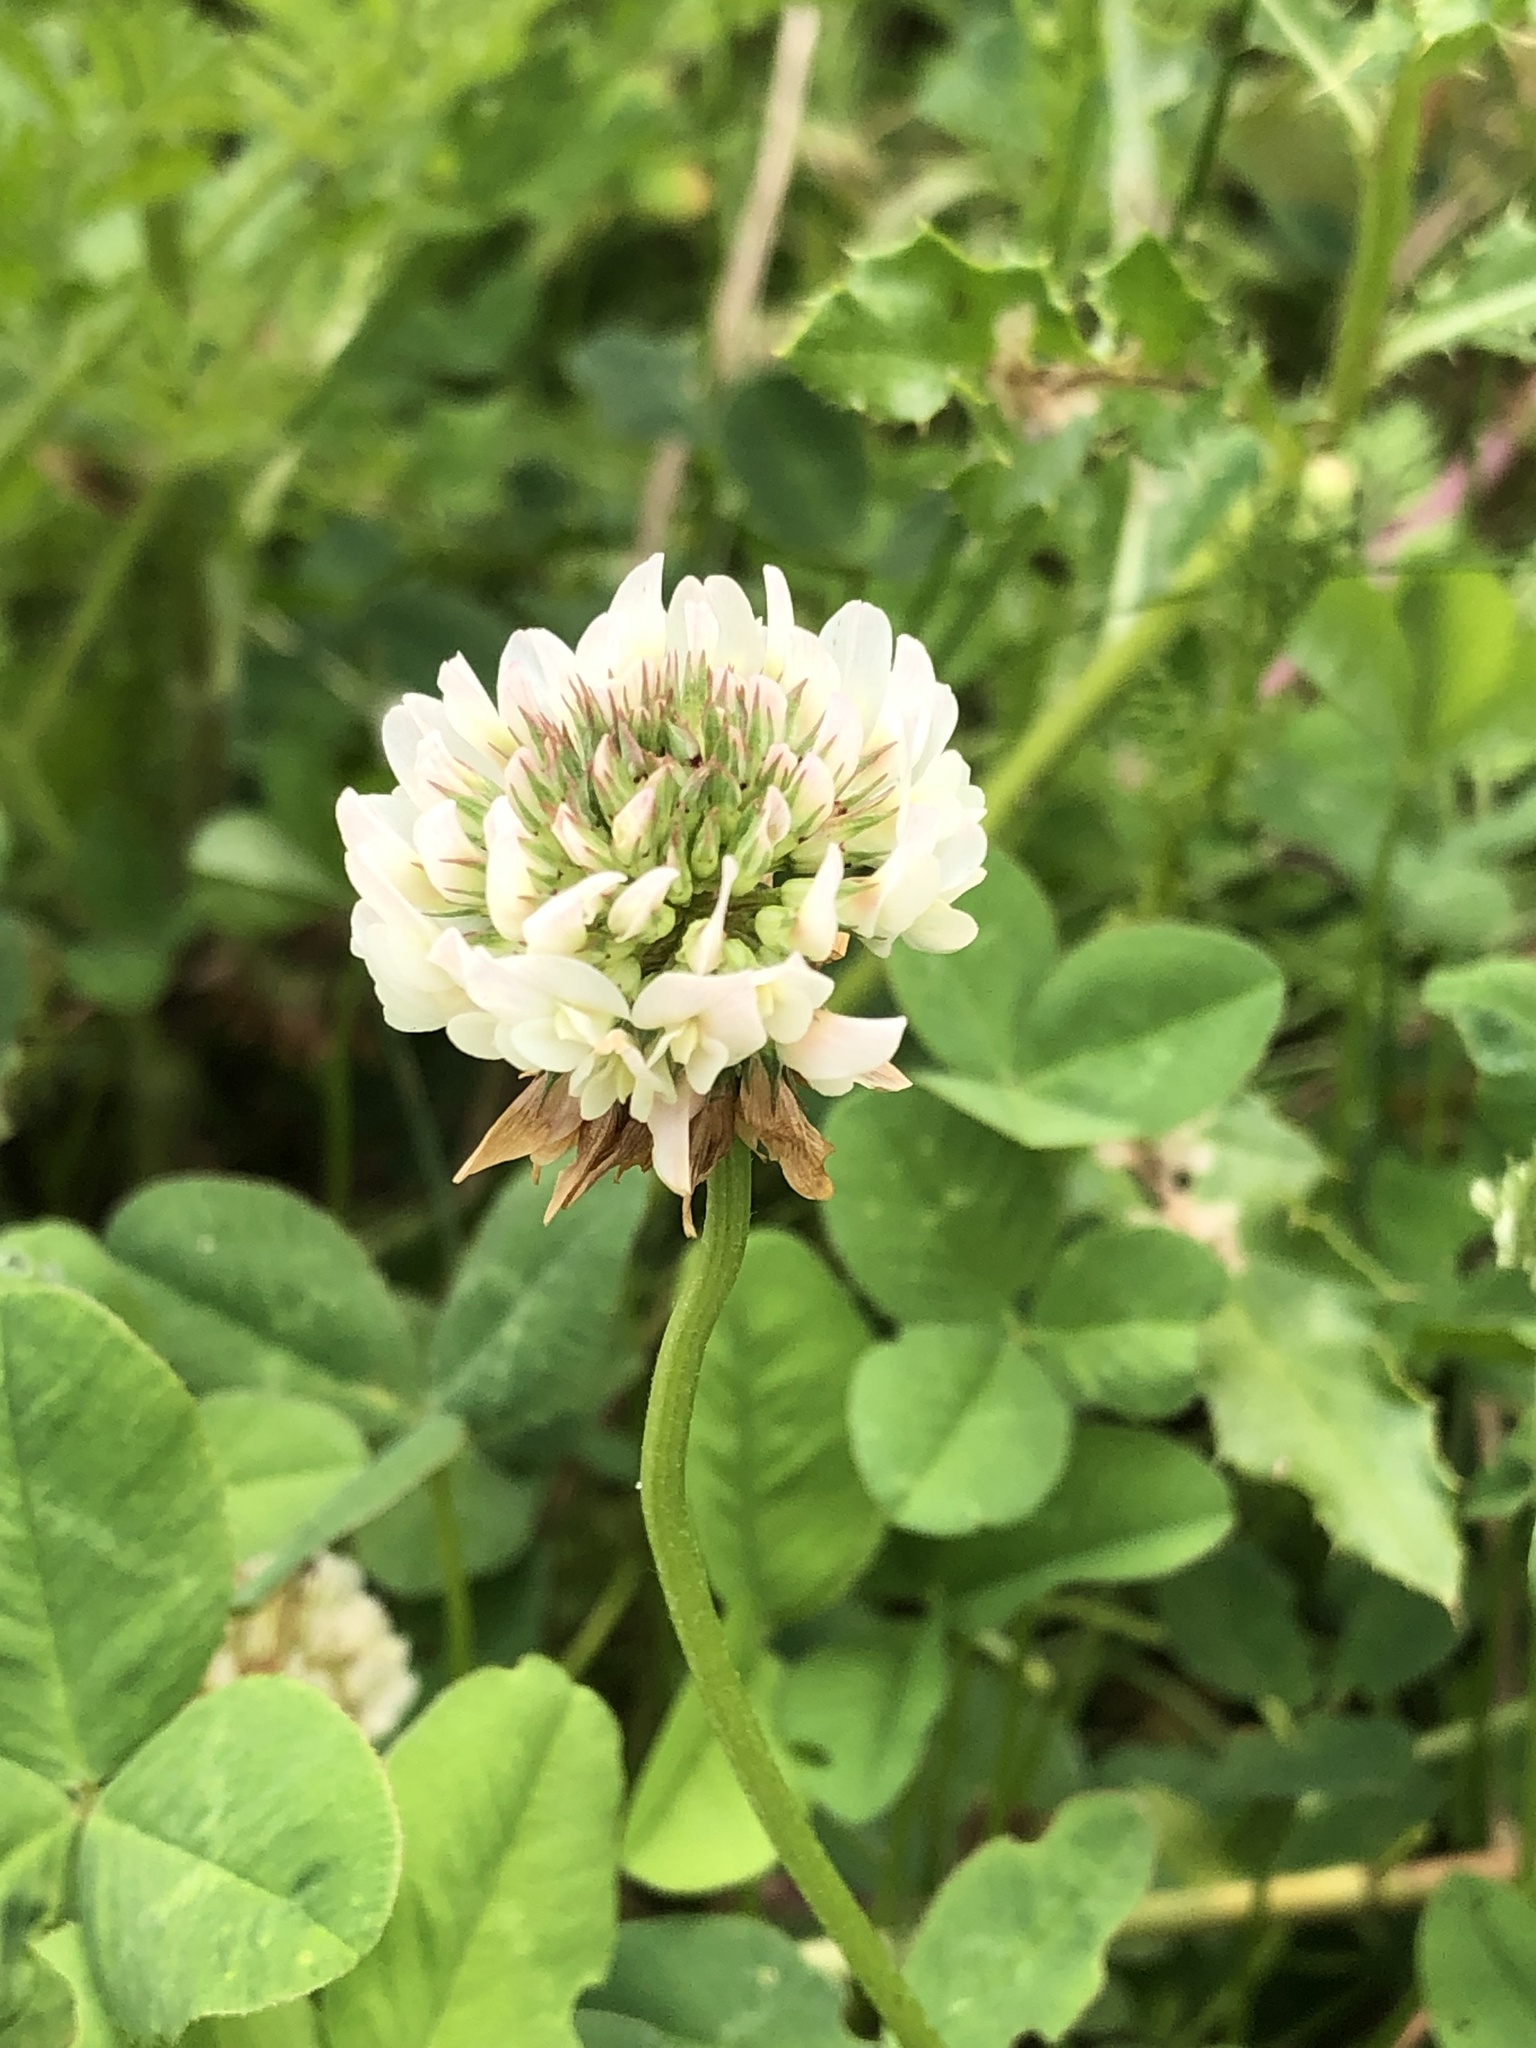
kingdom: Plantae
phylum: Tracheophyta
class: Magnoliopsida
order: Fabales
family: Fabaceae
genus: Trifolium
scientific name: Trifolium repens
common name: White clover
